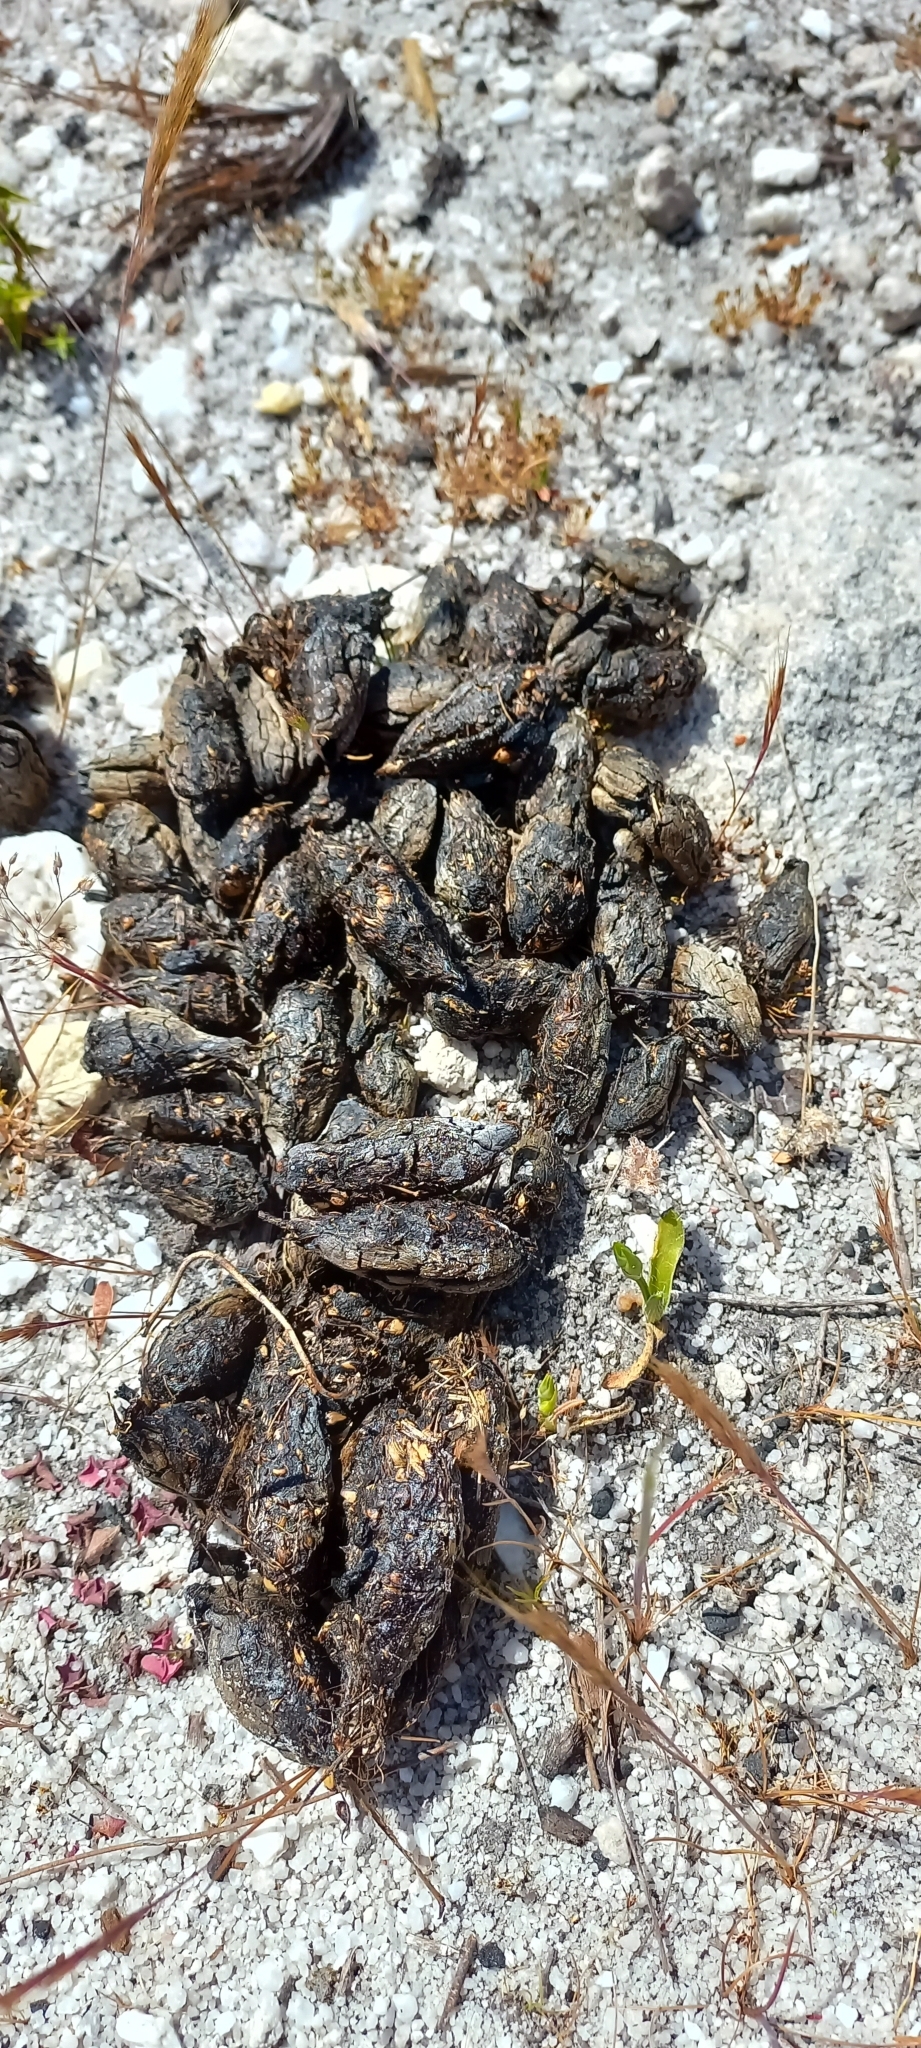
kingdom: Animalia
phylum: Chordata
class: Mammalia
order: Rodentia
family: Hystricidae
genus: Hystrix
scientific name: Hystrix africaeaustralis
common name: Cape porcupine
